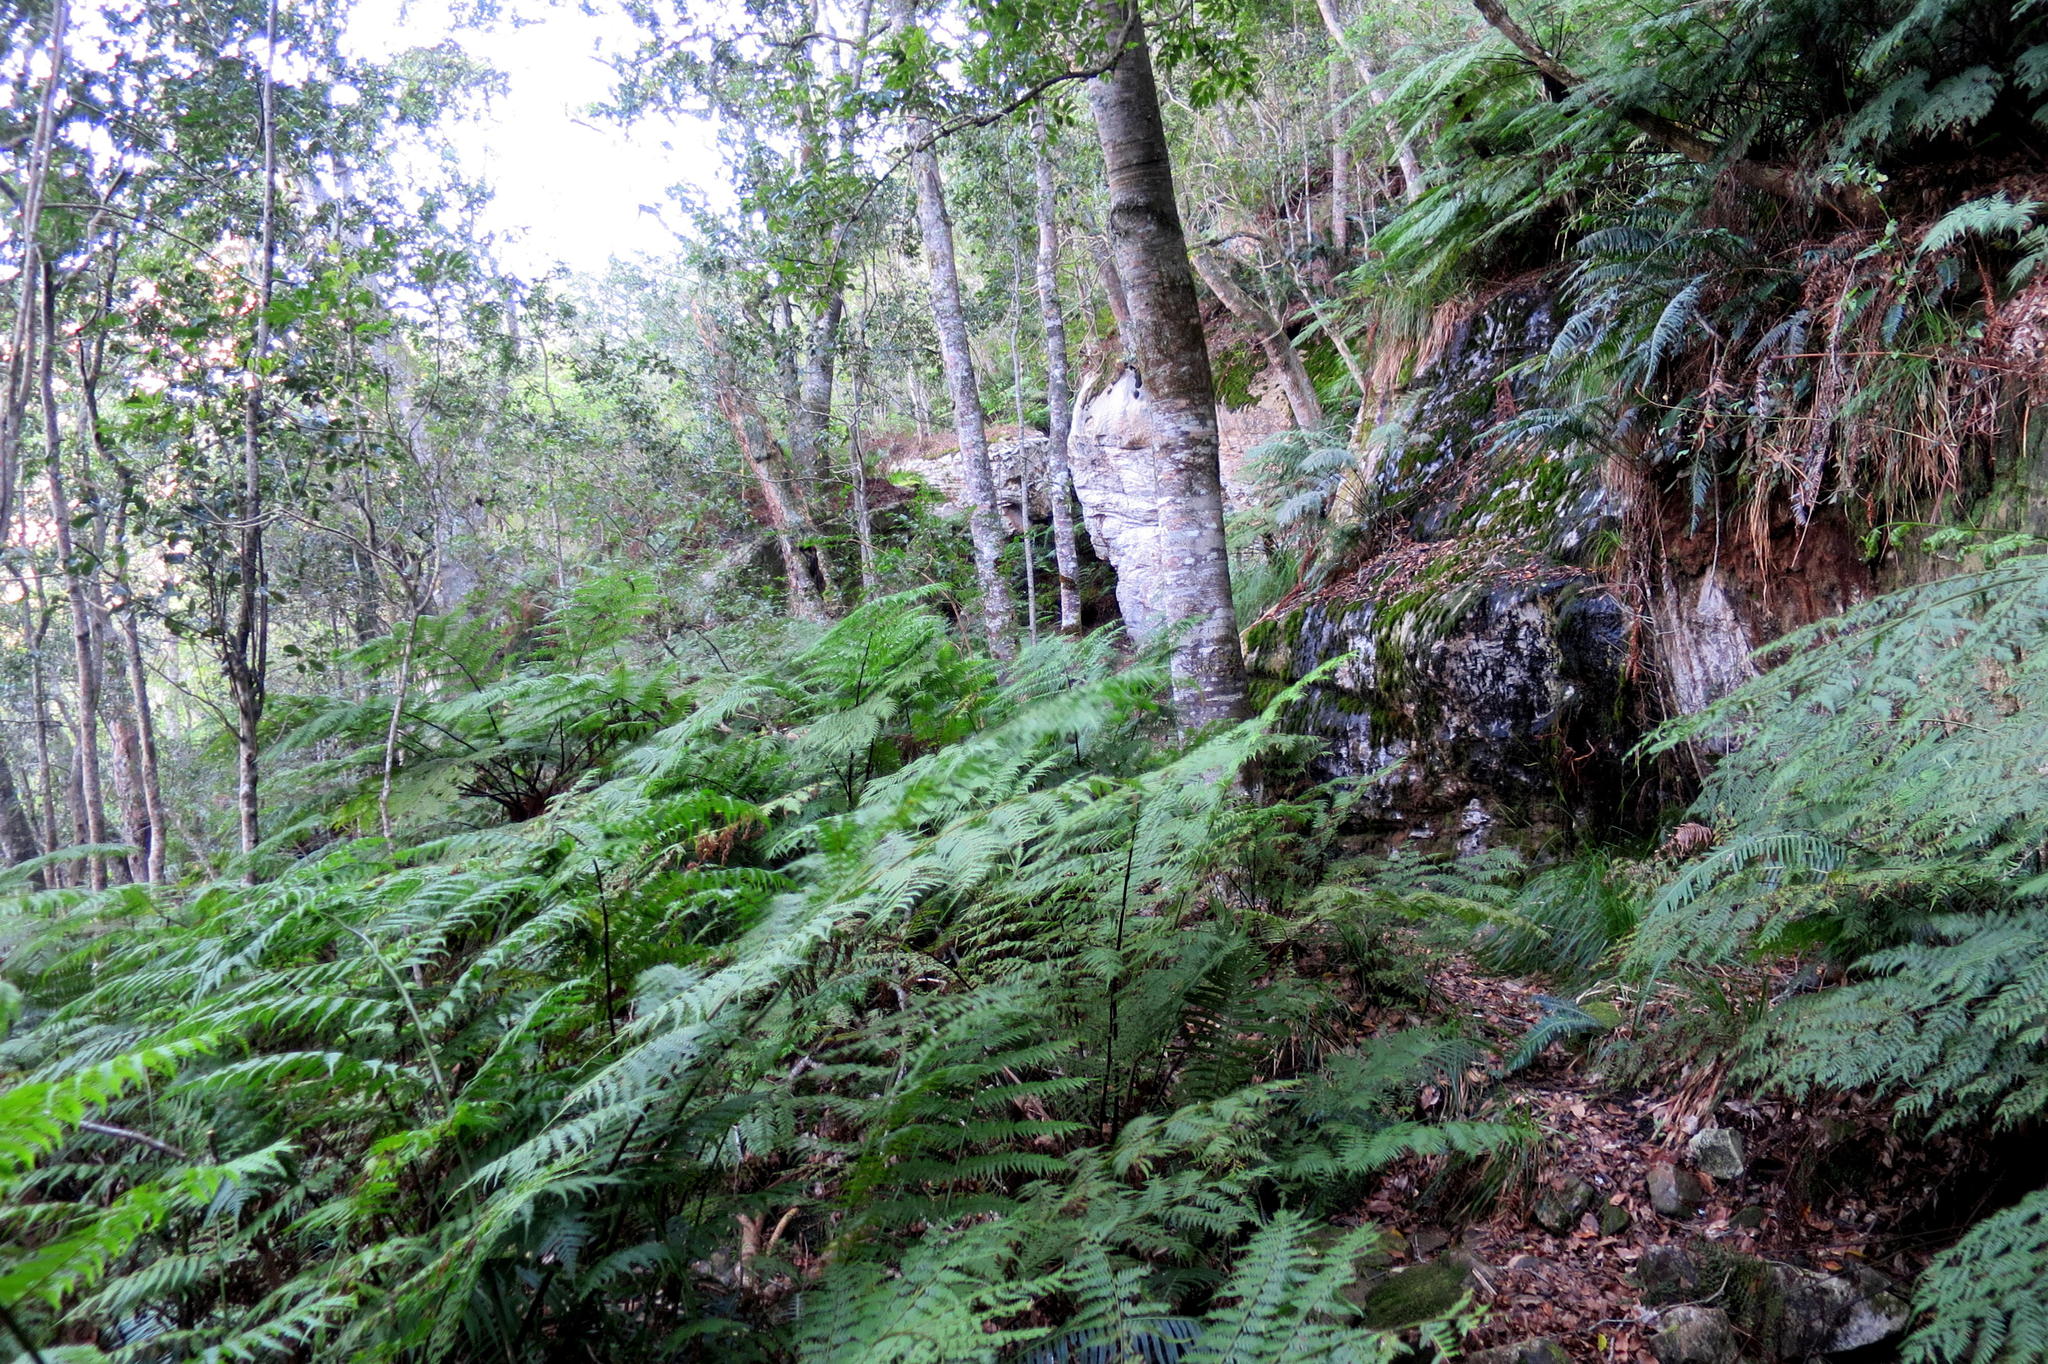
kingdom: Plantae
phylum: Tracheophyta
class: Magnoliopsida
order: Laurales
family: Lauraceae
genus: Ocotea
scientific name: Ocotea bullata
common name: Black stinkwood
